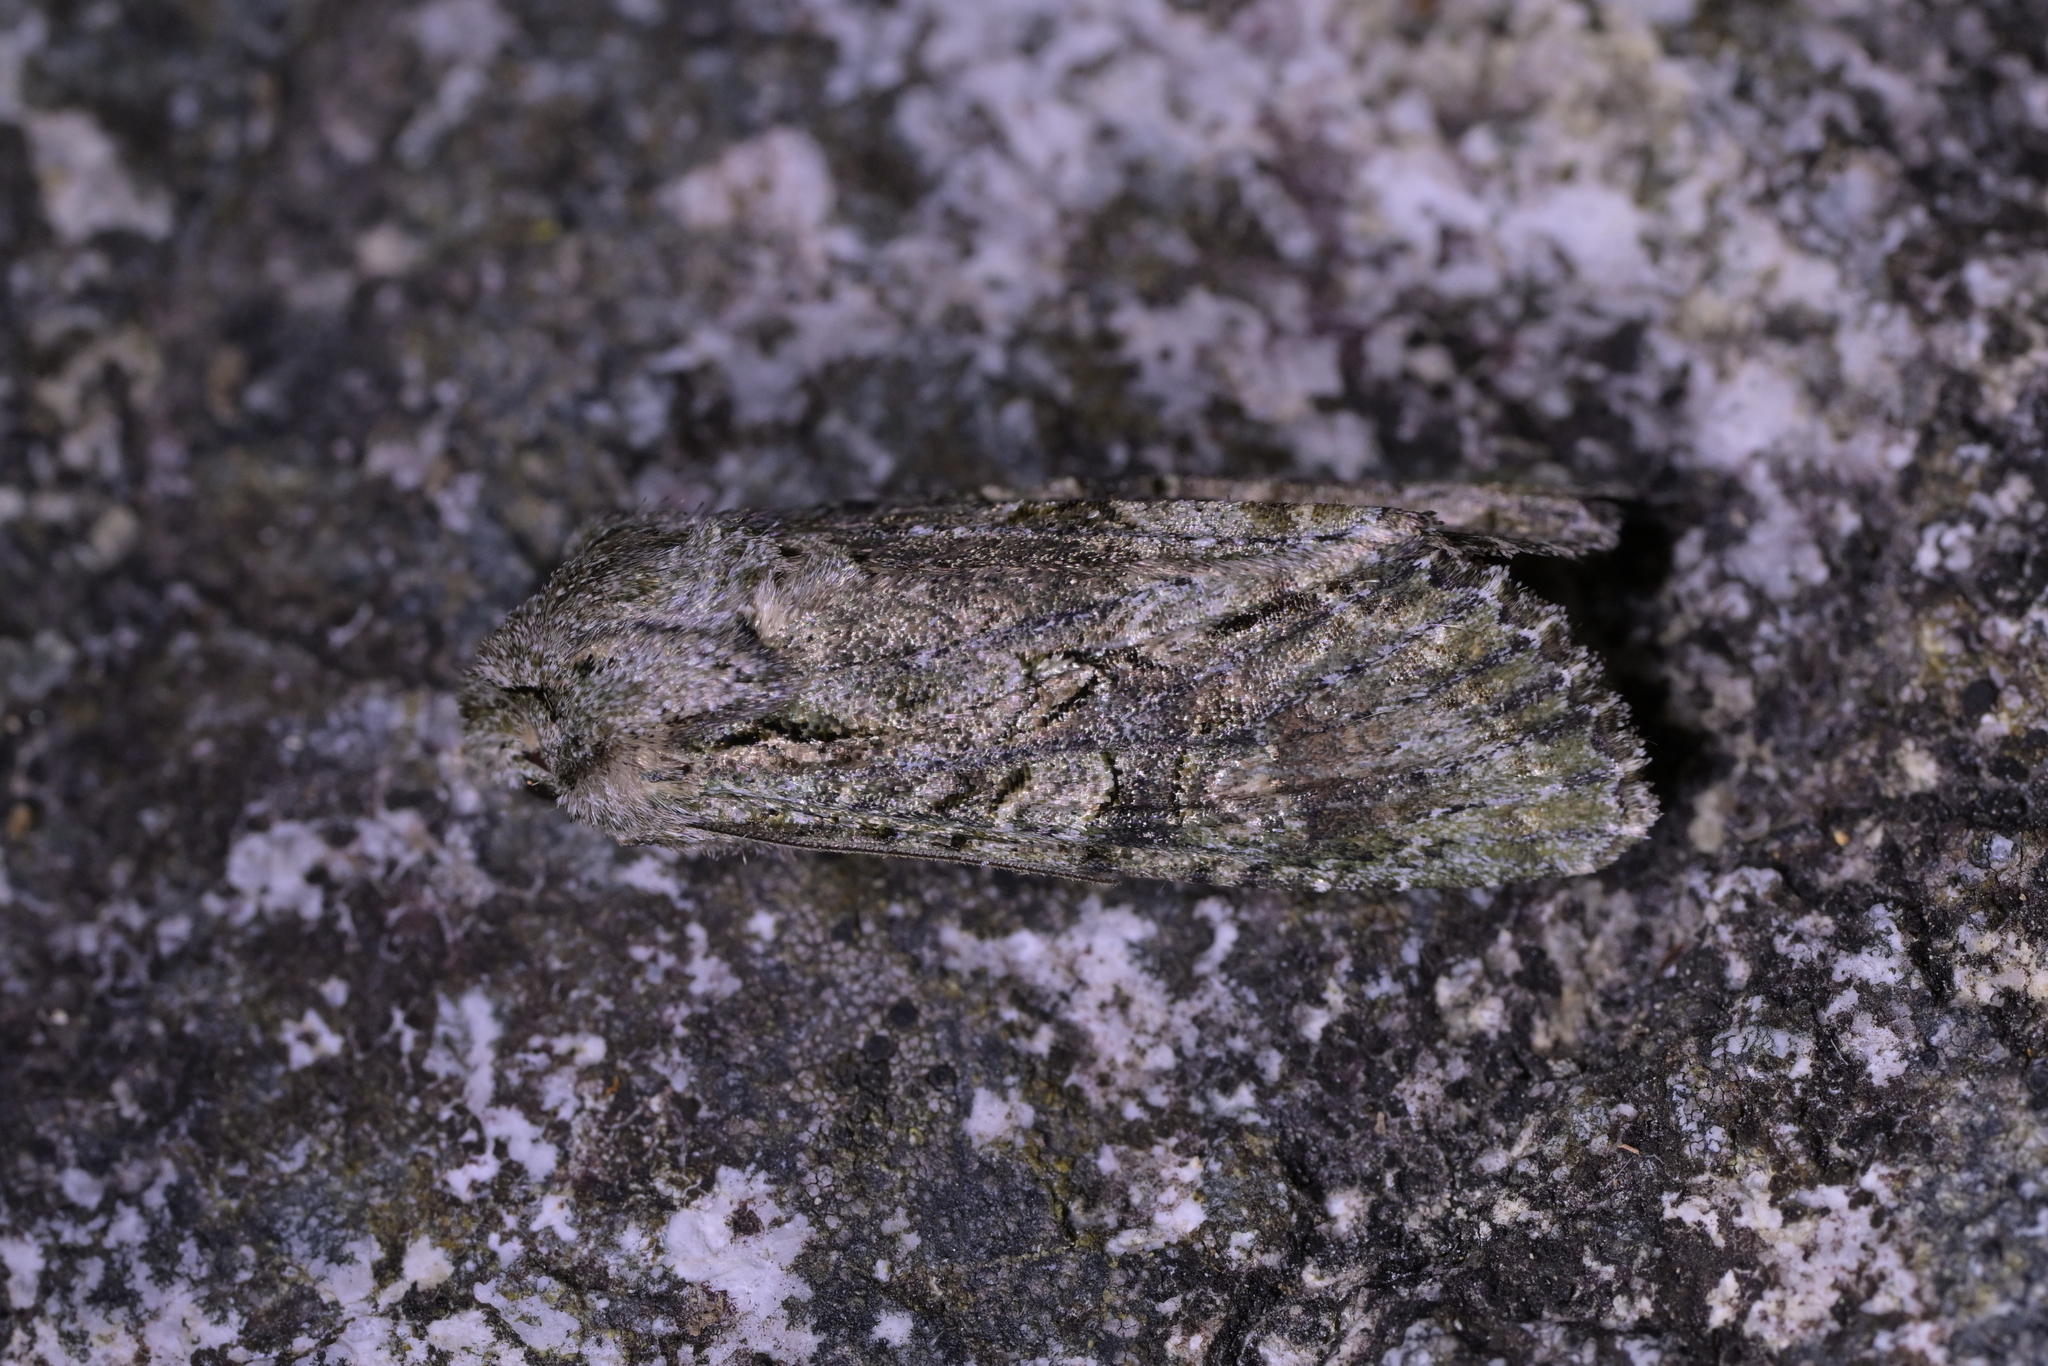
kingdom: Animalia
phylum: Arthropoda
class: Insecta
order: Lepidoptera
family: Noctuidae
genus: Ichneutica
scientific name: Ichneutica mutans
